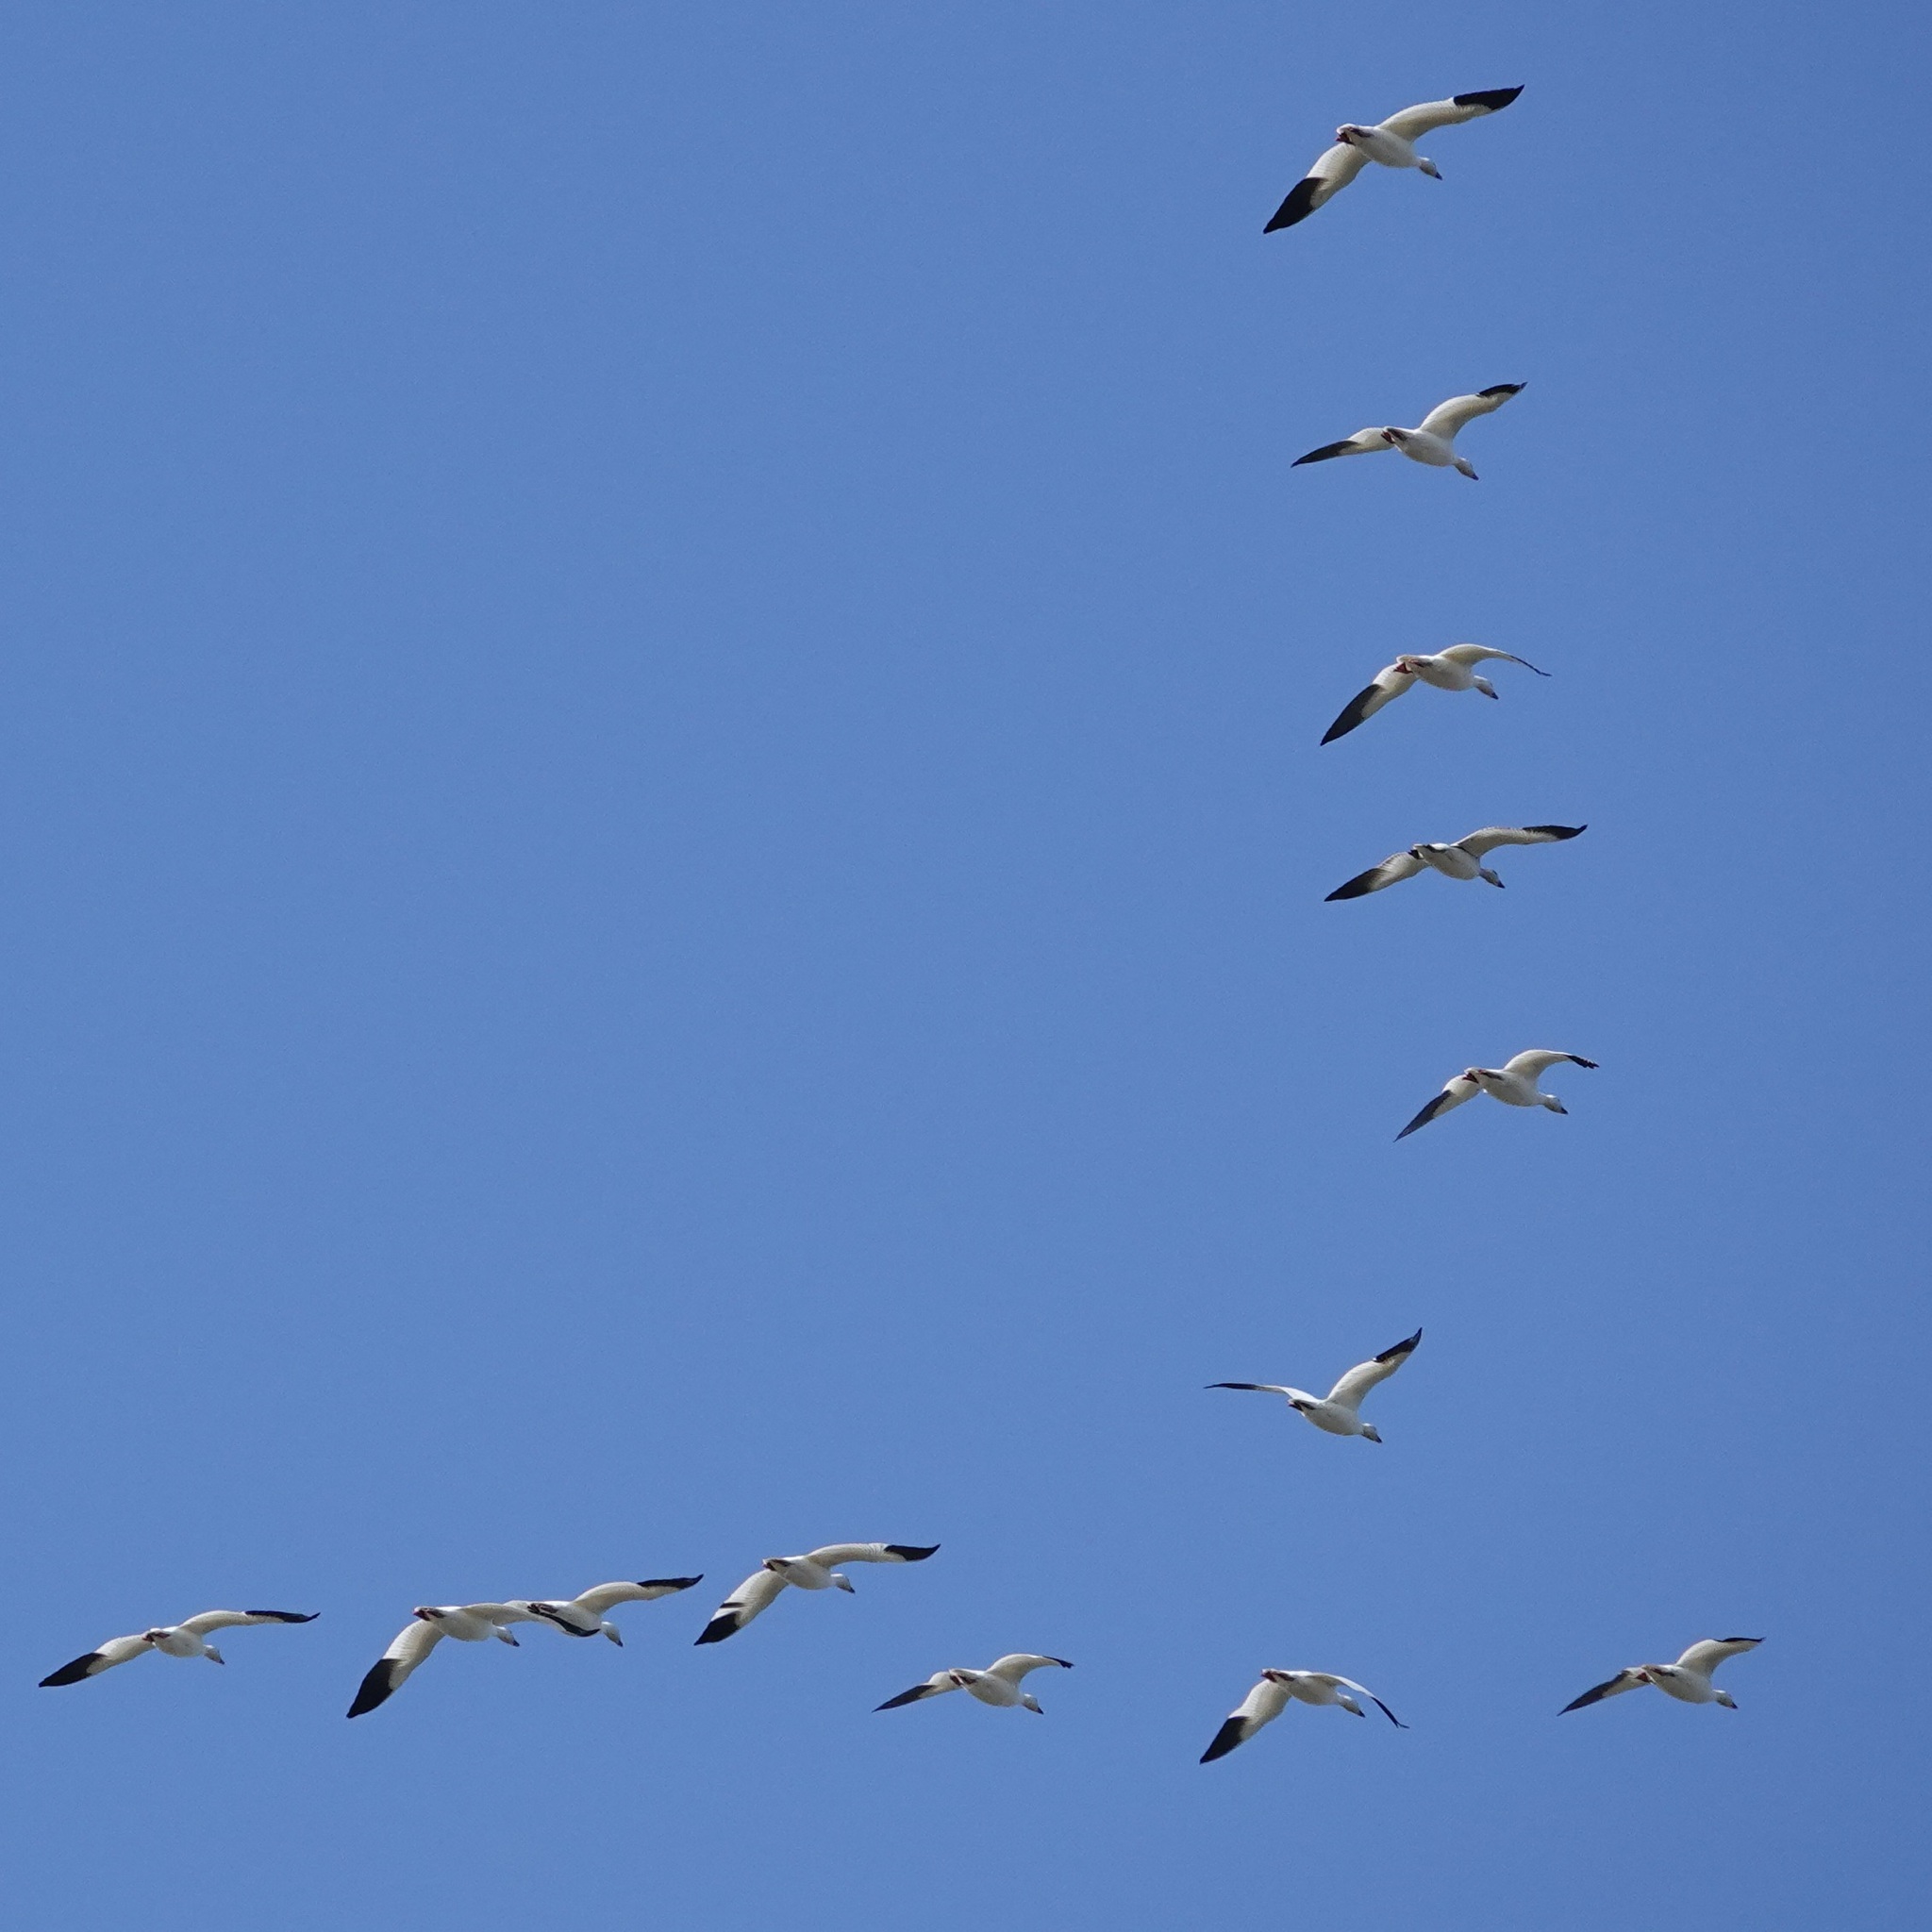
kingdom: Animalia
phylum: Chordata
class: Aves
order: Anseriformes
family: Anatidae
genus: Anser
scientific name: Anser caerulescens
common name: Snow goose
